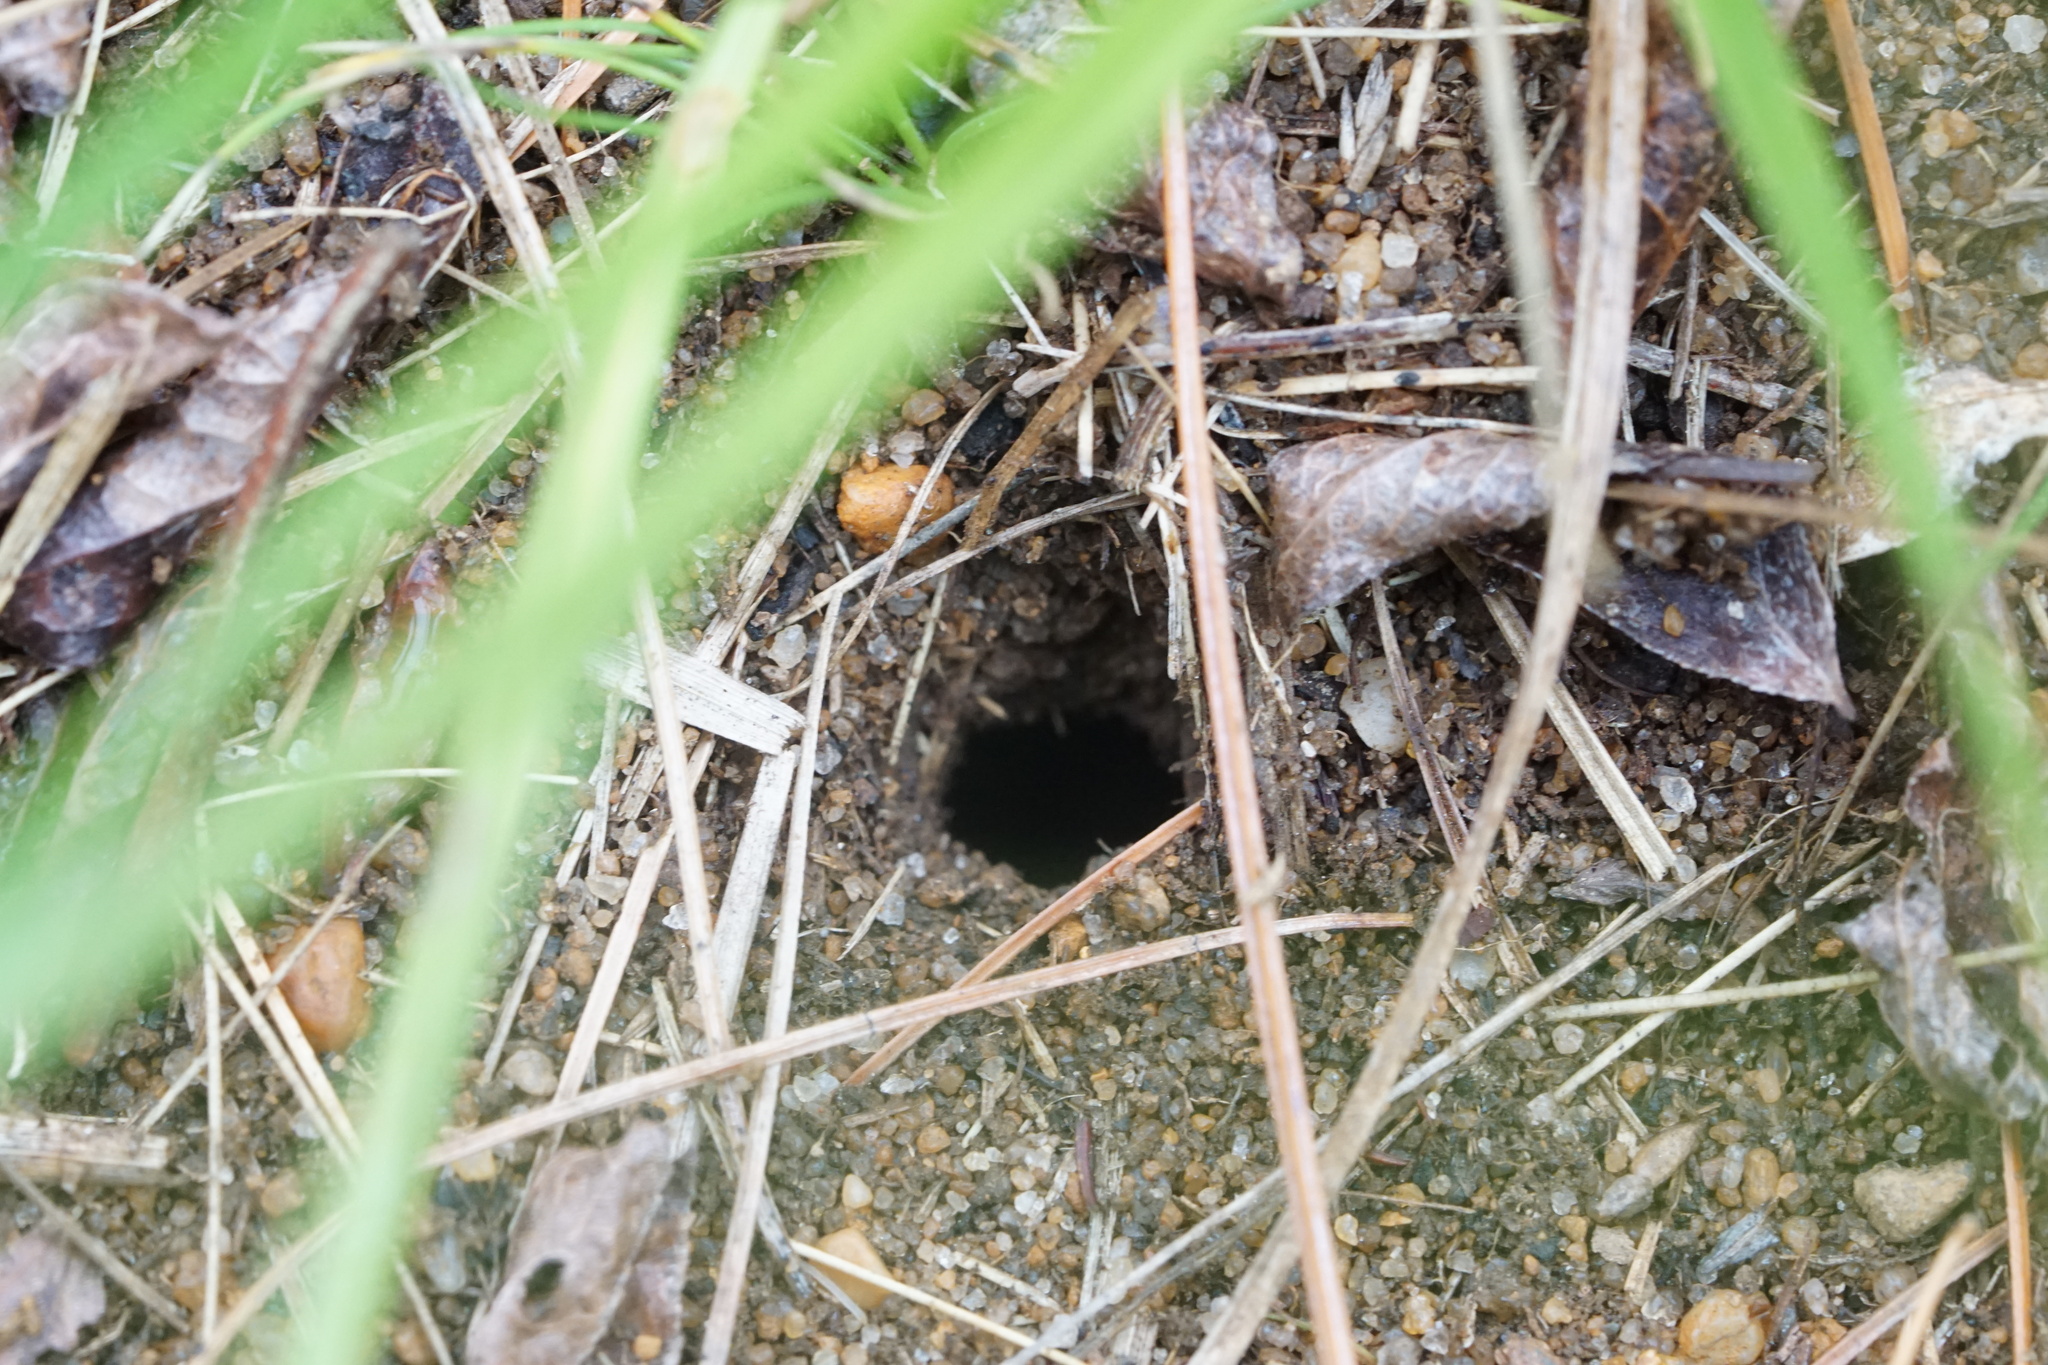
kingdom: Animalia
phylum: Arthropoda
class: Insecta
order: Hymenoptera
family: Formicidae
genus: Formica
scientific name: Formica exsectoides
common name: Allegheny mound ant
